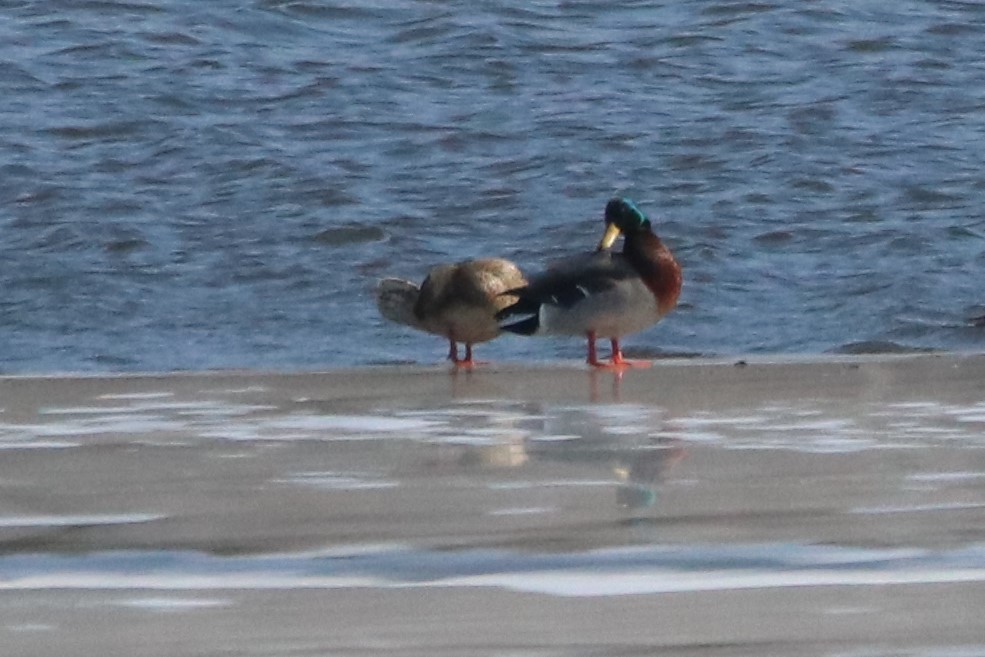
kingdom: Animalia
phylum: Chordata
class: Aves
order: Anseriformes
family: Anatidae
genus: Anas
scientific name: Anas platyrhynchos
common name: Mallard
